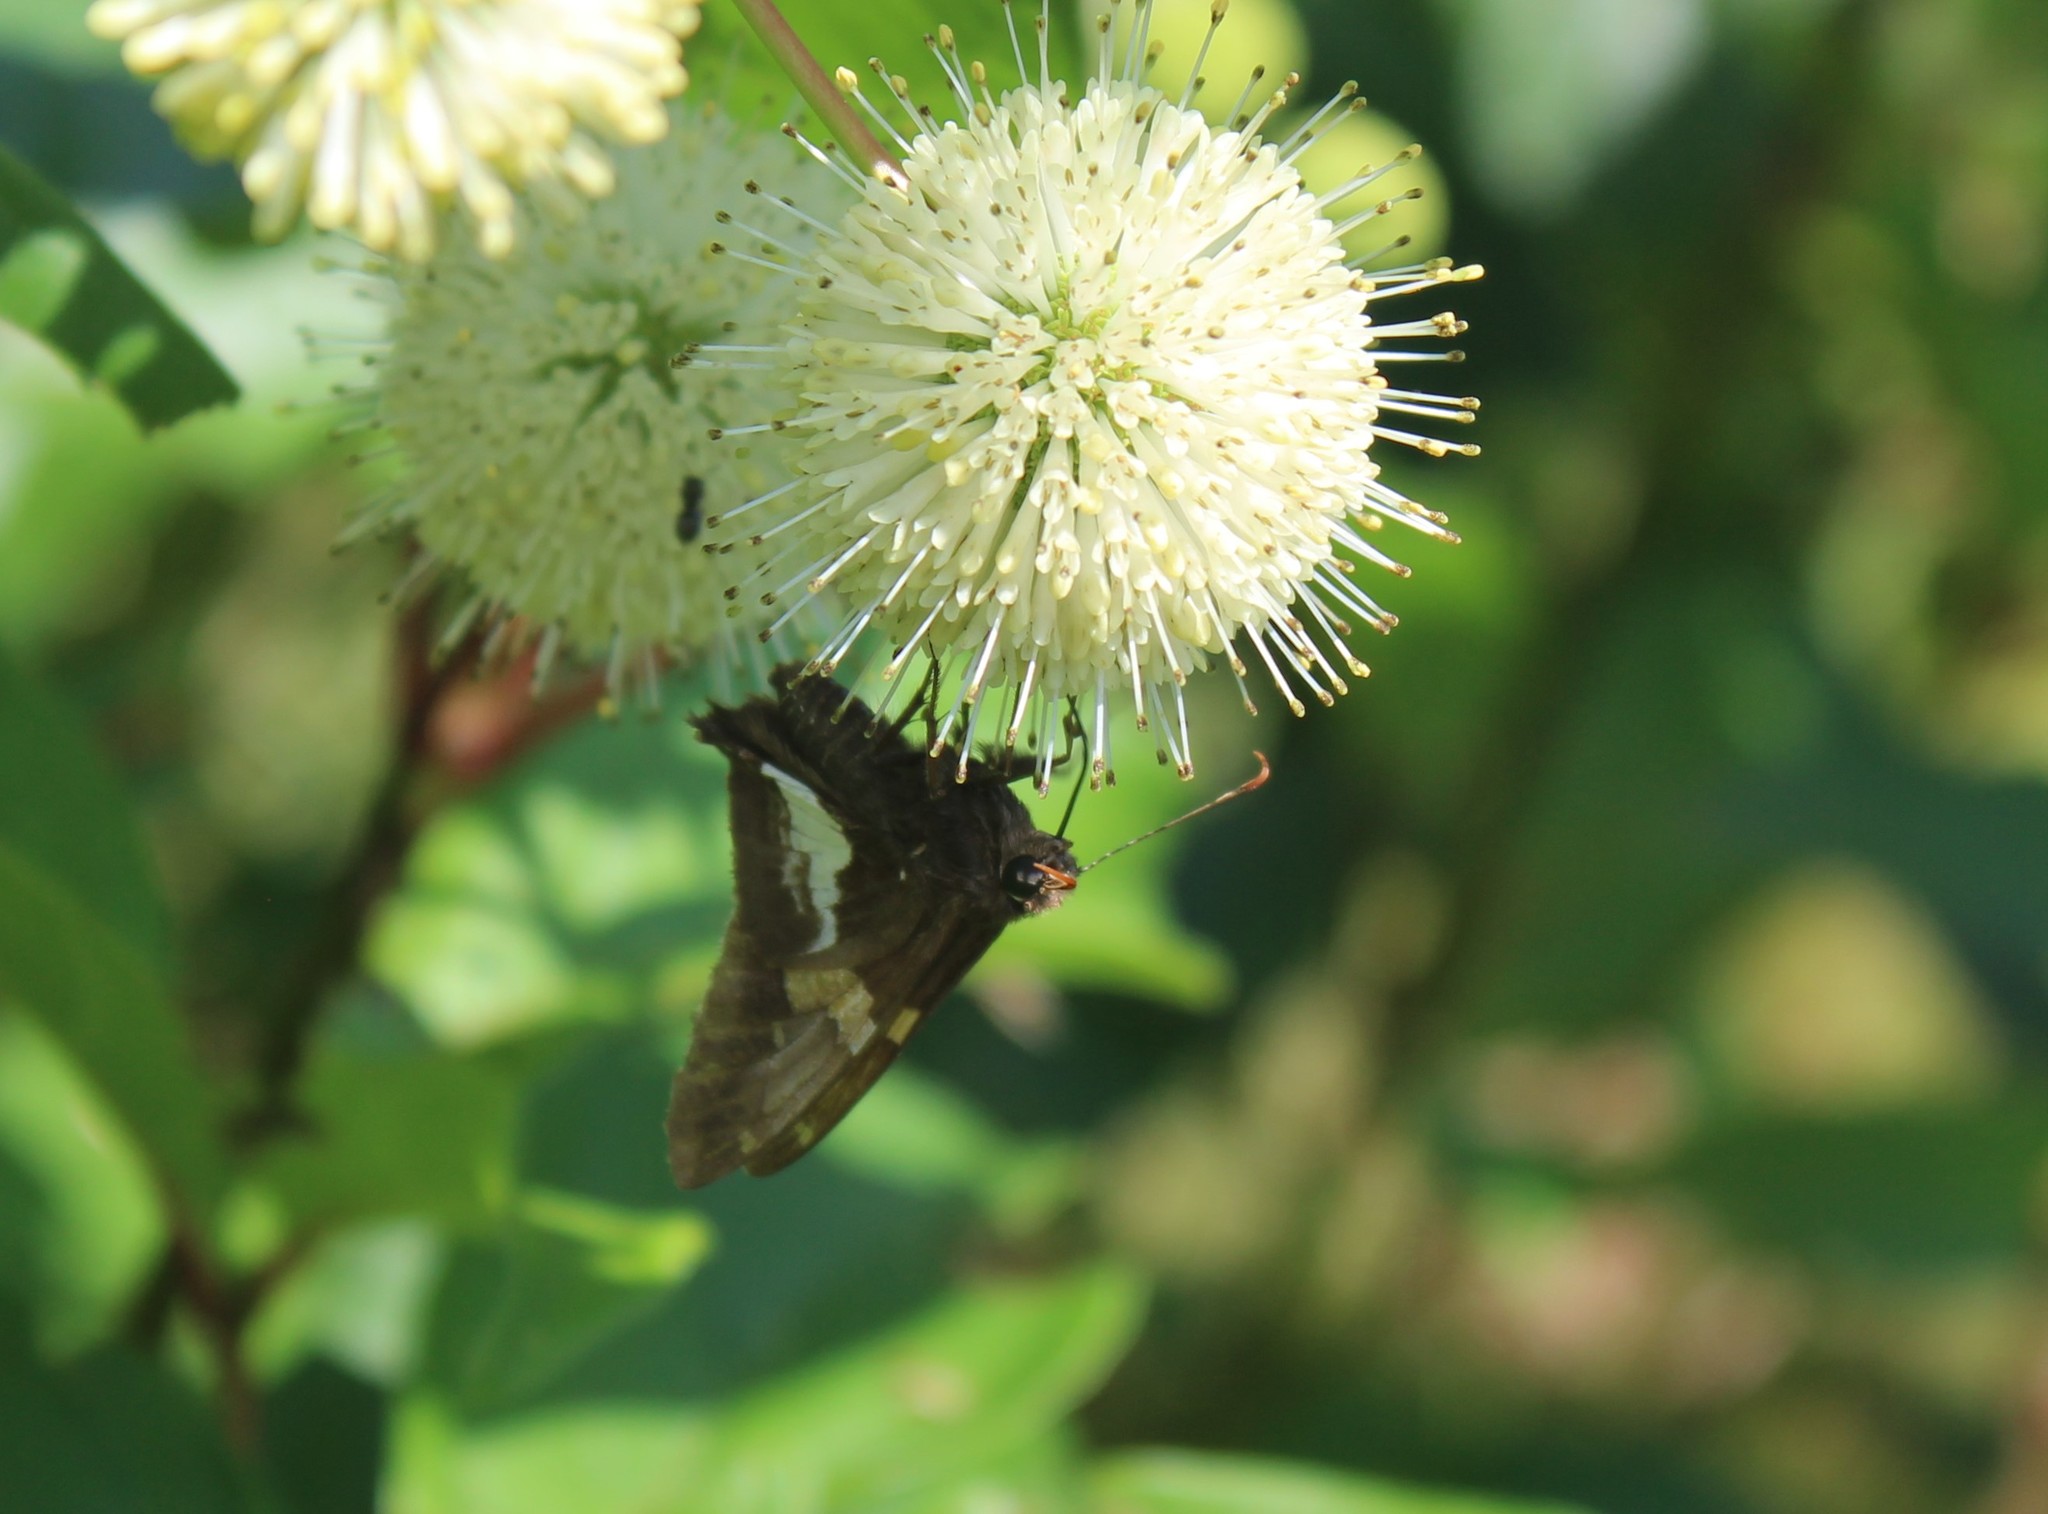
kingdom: Animalia
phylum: Arthropoda
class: Insecta
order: Lepidoptera
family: Hesperiidae
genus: Epargyreus
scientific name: Epargyreus clarus
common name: Silver-spotted skipper
